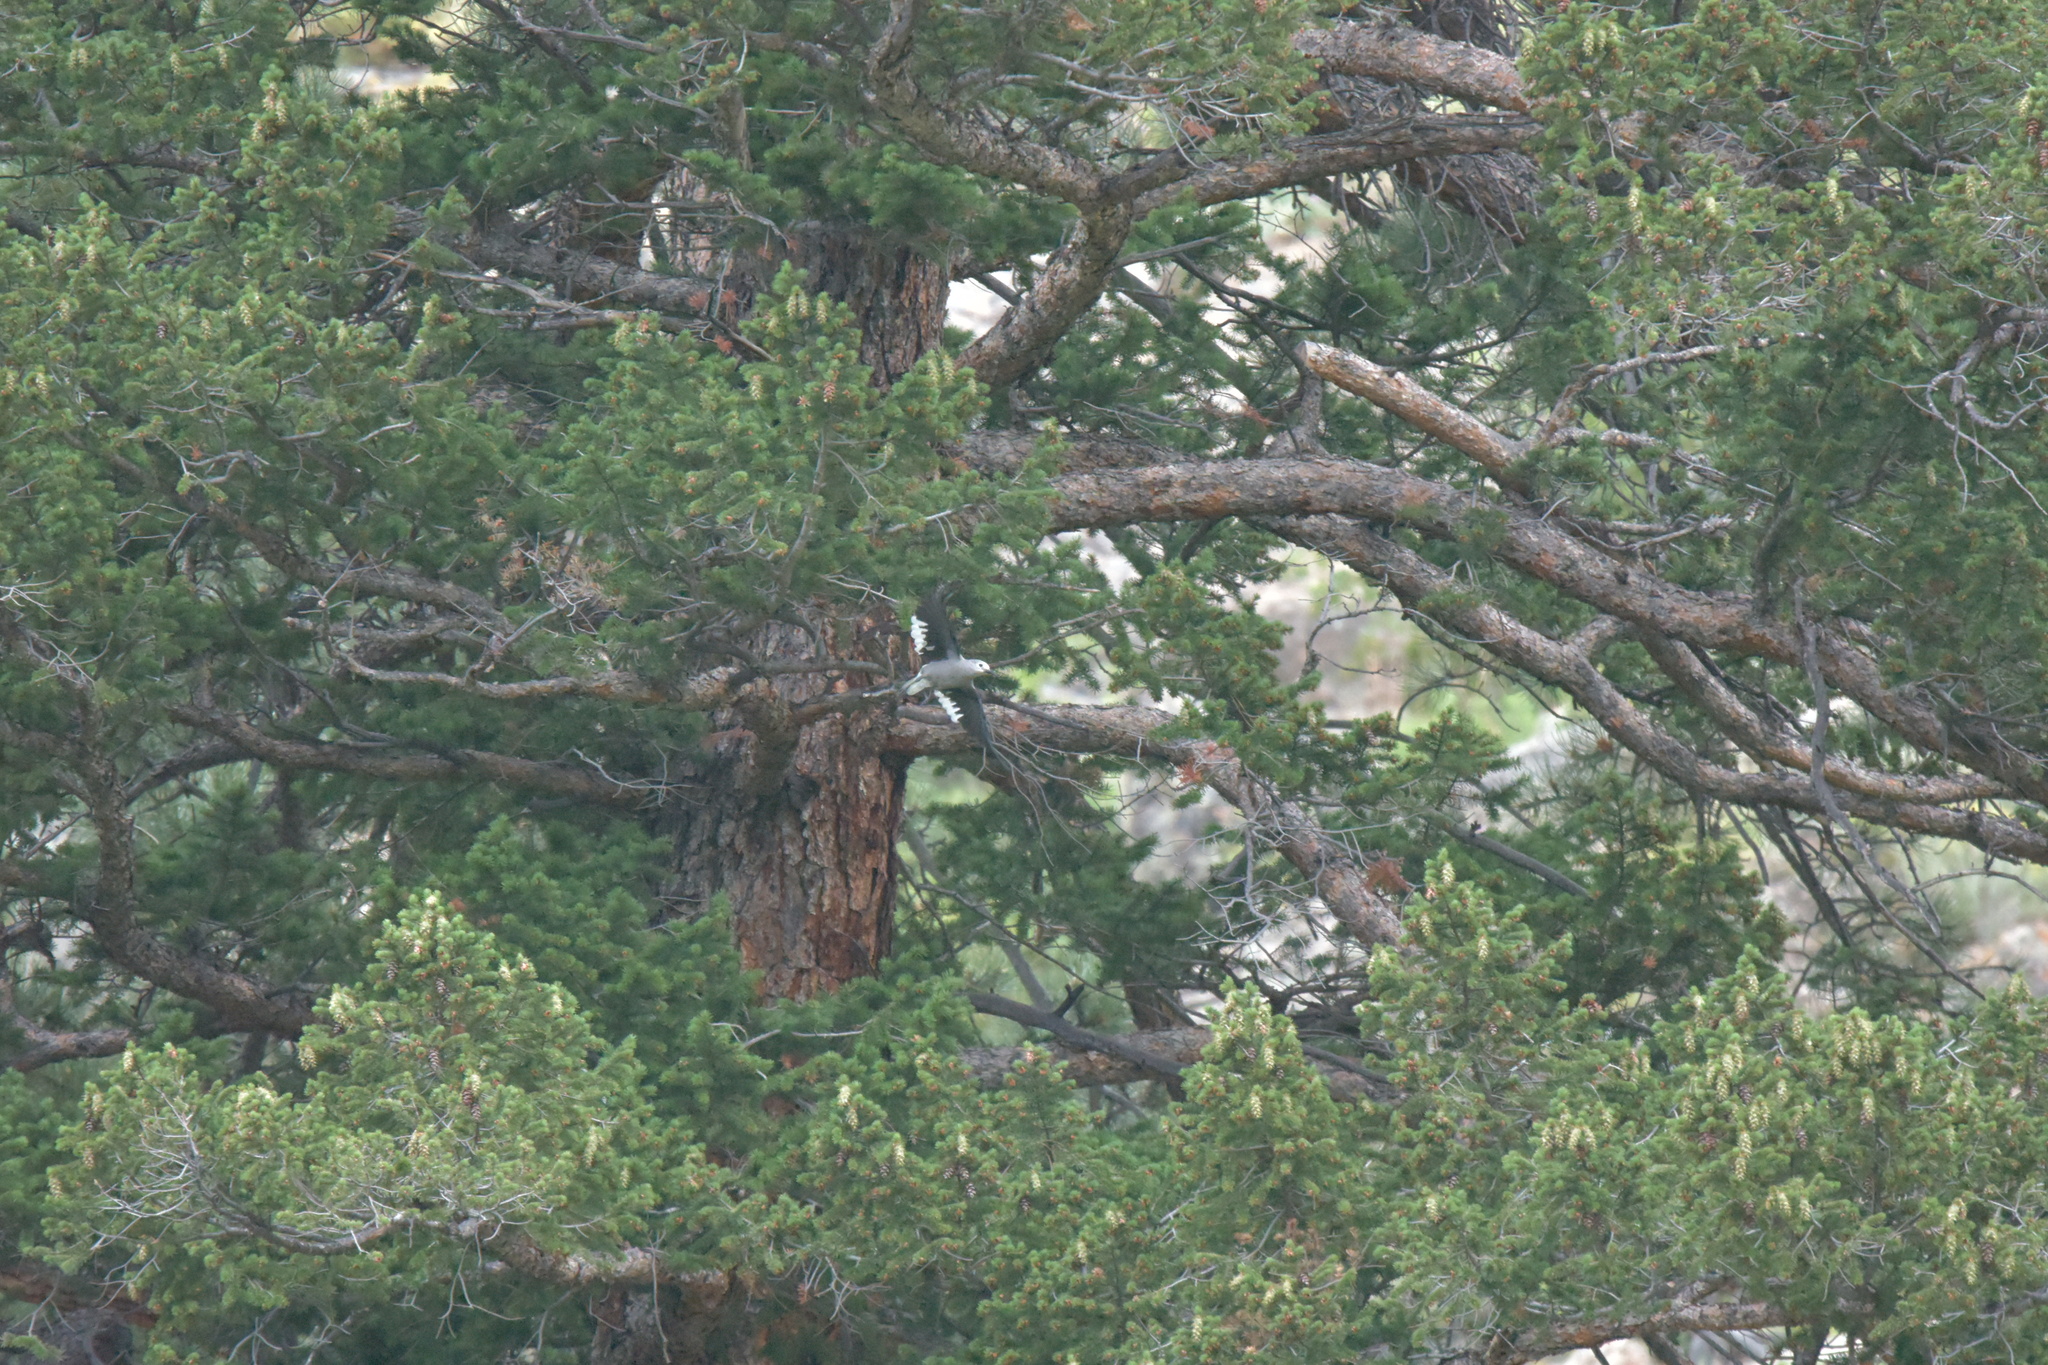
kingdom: Animalia
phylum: Chordata
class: Aves
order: Passeriformes
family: Corvidae
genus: Nucifraga
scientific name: Nucifraga columbiana
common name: Clark's nutcracker
